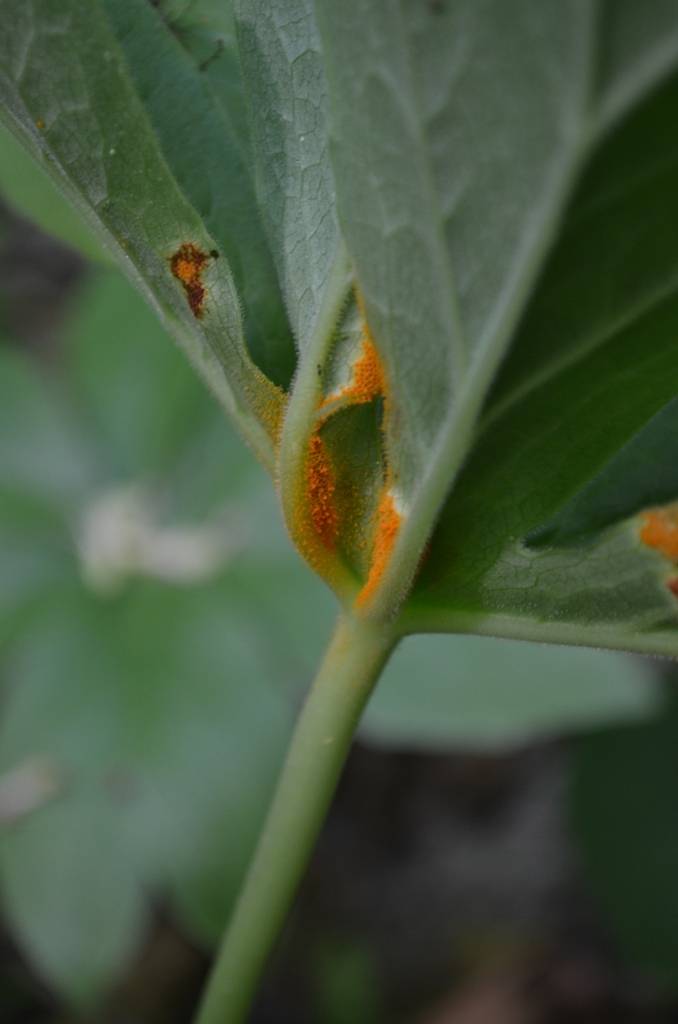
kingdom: Plantae
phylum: Tracheophyta
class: Magnoliopsida
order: Ranunculales
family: Berberidaceae
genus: Podophyllum
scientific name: Podophyllum peltatum
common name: Wild mandrake
